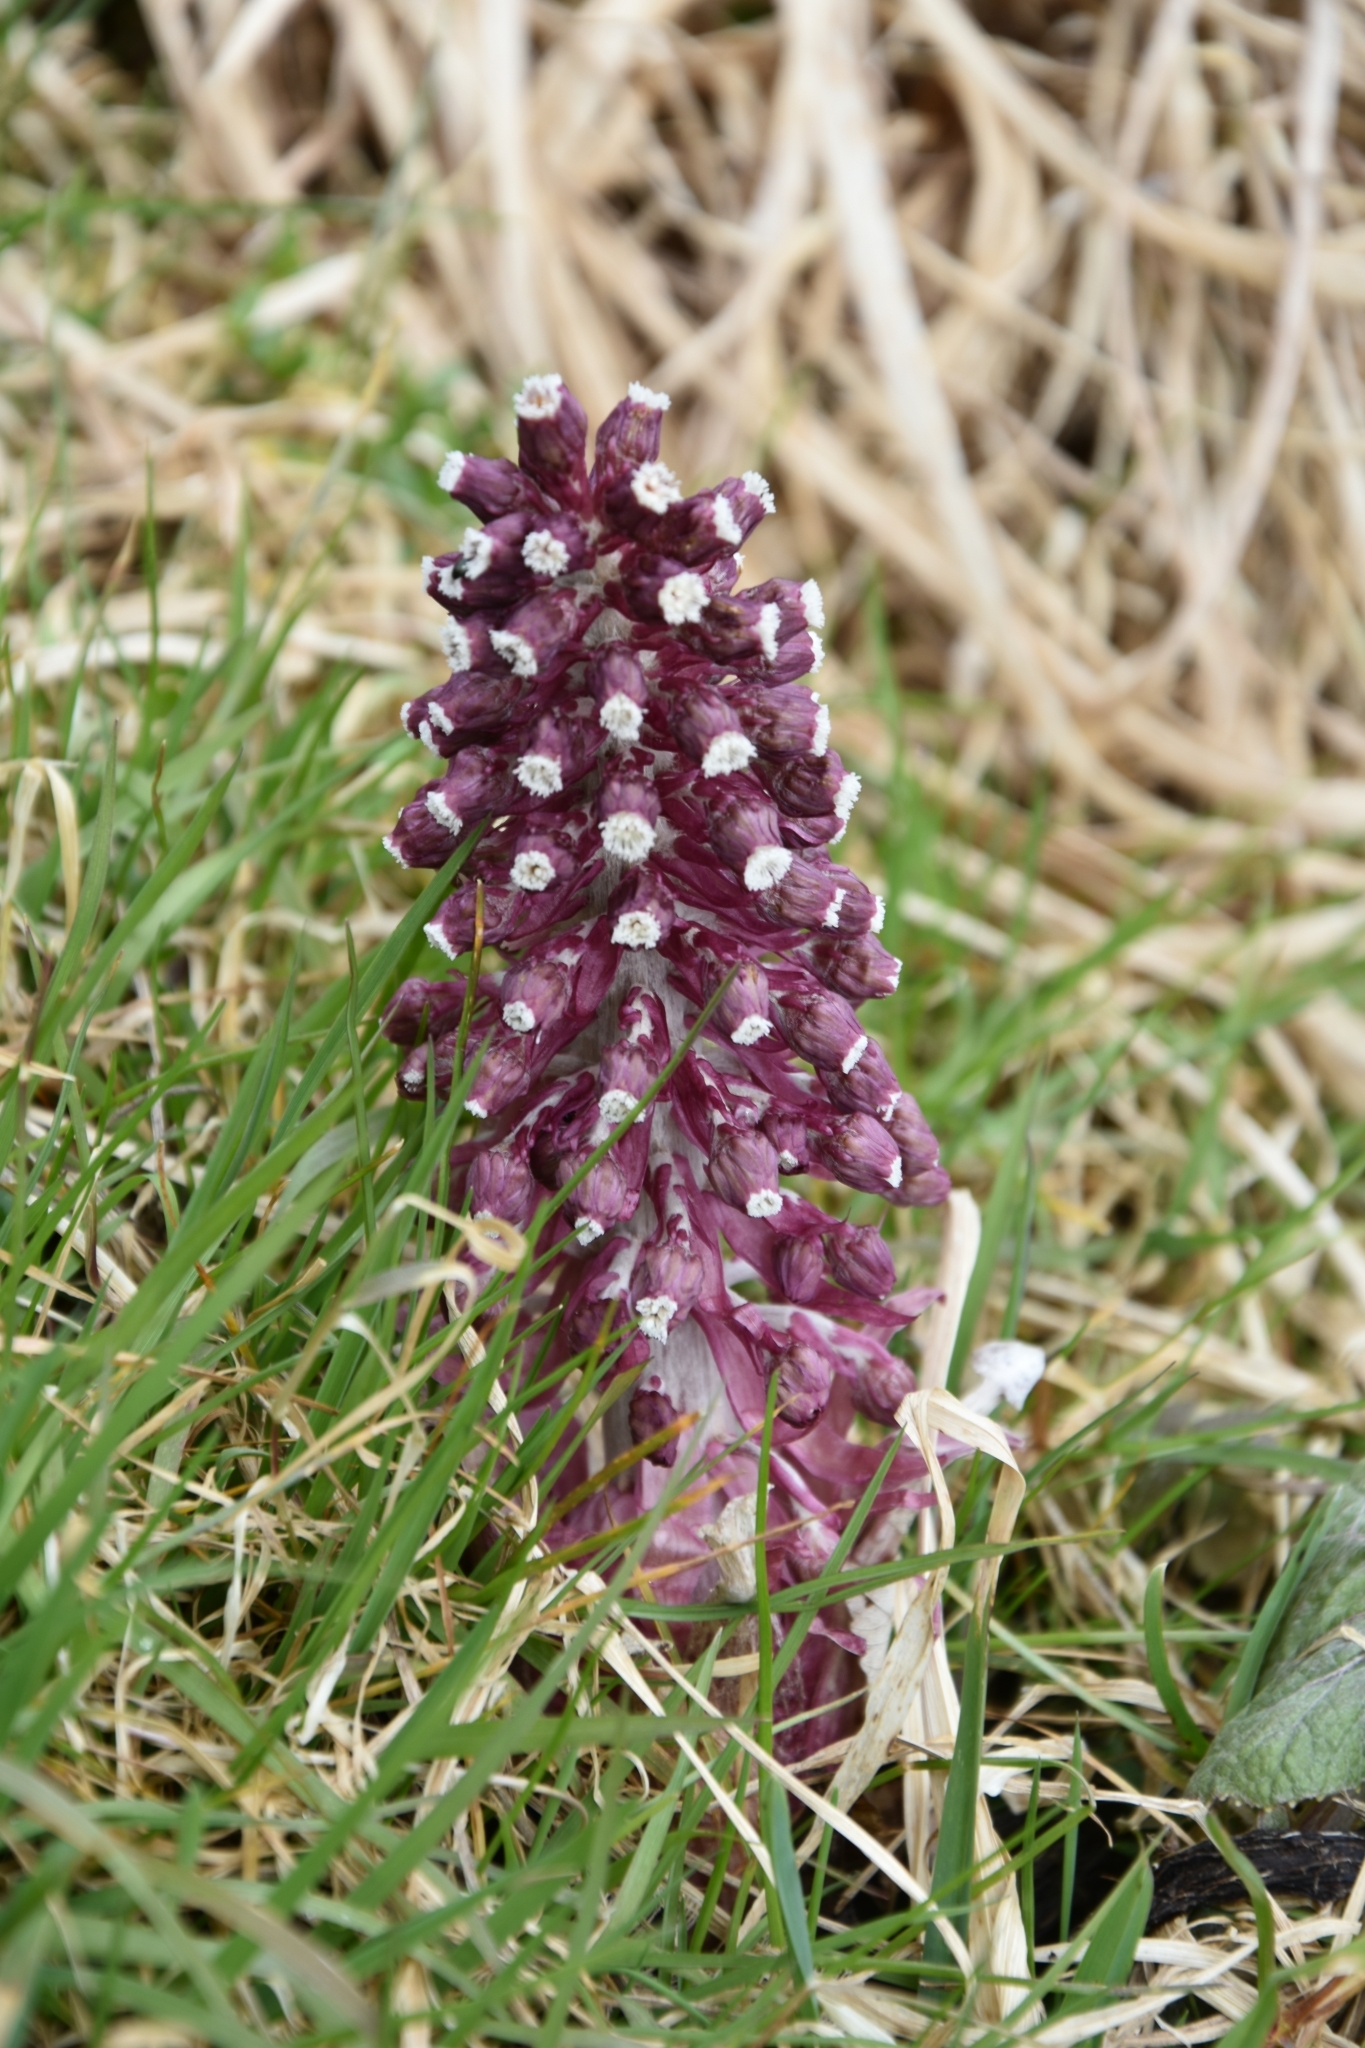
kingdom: Plantae
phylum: Tracheophyta
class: Magnoliopsida
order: Asterales
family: Asteraceae
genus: Petasites
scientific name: Petasites hybridus
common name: Butterbur
